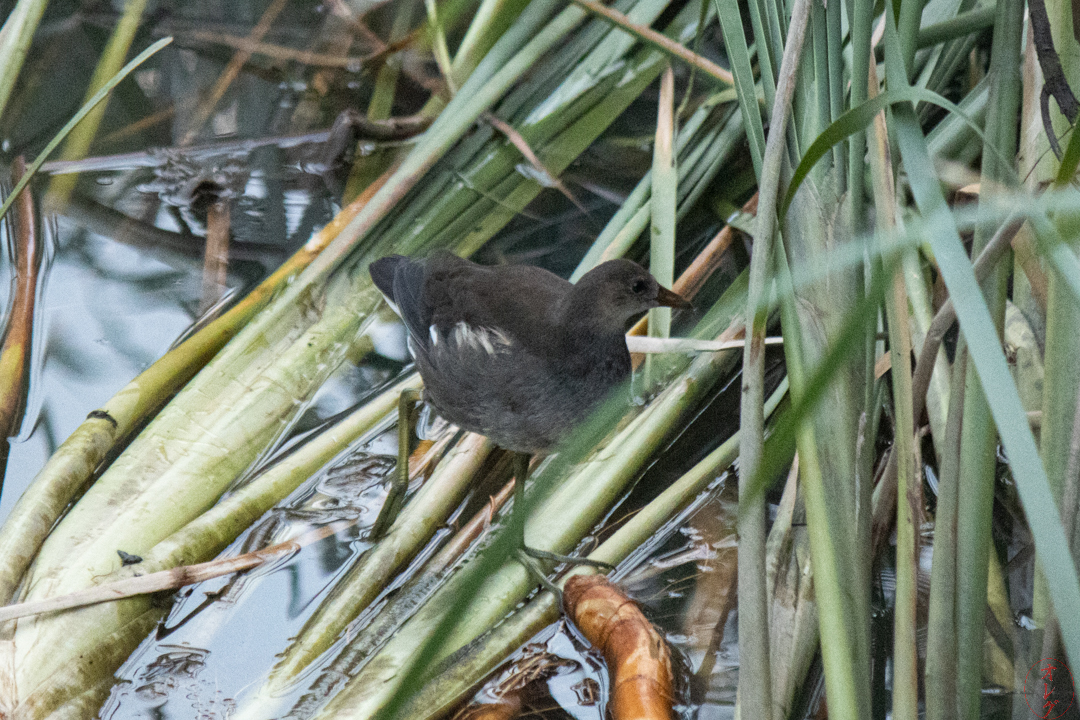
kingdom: Animalia
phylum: Chordata
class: Aves
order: Gruiformes
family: Rallidae
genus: Gallinula
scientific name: Gallinula chloropus
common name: Common moorhen
